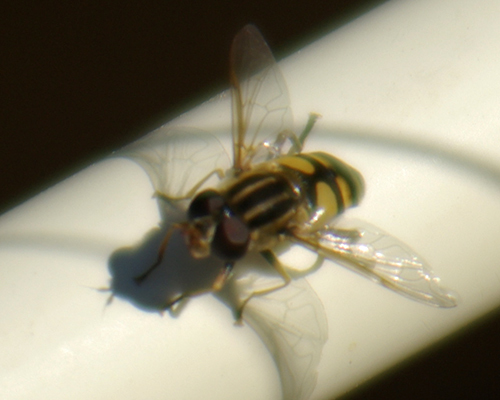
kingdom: Animalia
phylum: Arthropoda
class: Insecta
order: Diptera
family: Syrphidae
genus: Helophilus
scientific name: Helophilus fasciatus
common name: Narrow-headed marsh fly
